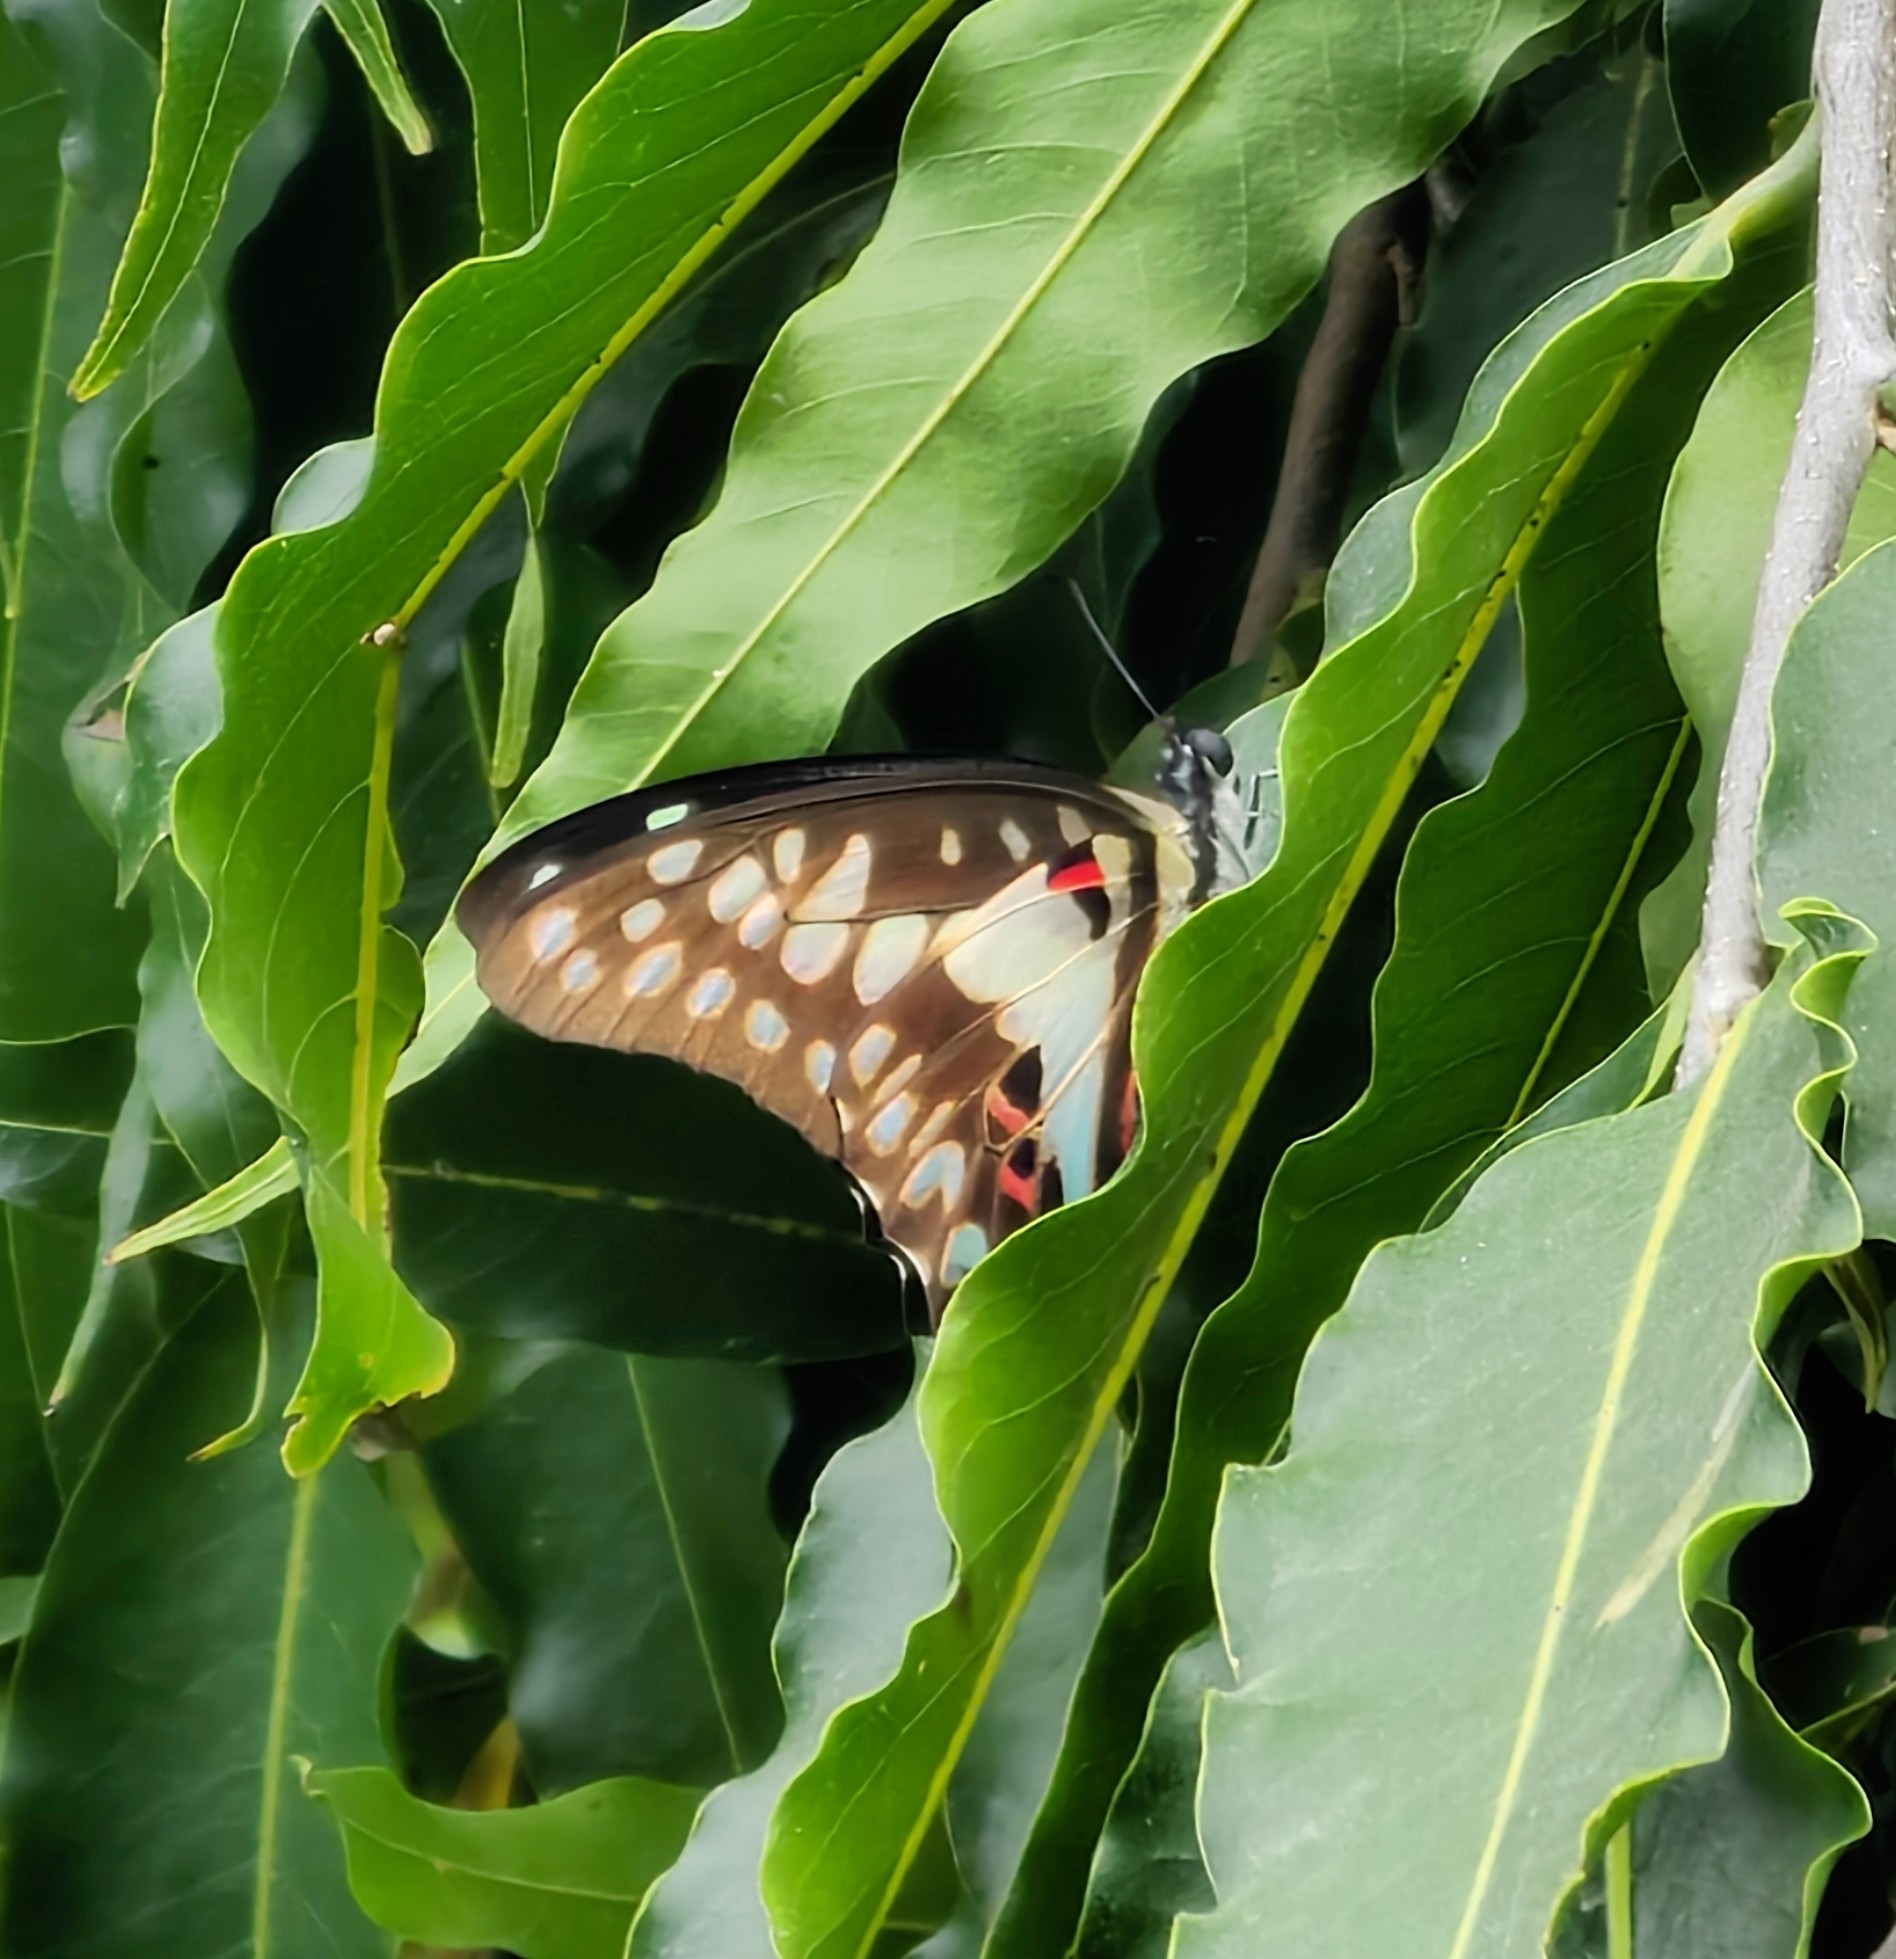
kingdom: Animalia
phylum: Arthropoda
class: Insecta
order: Lepidoptera
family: Papilionidae
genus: Graphium
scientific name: Graphium doson
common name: Common jay
